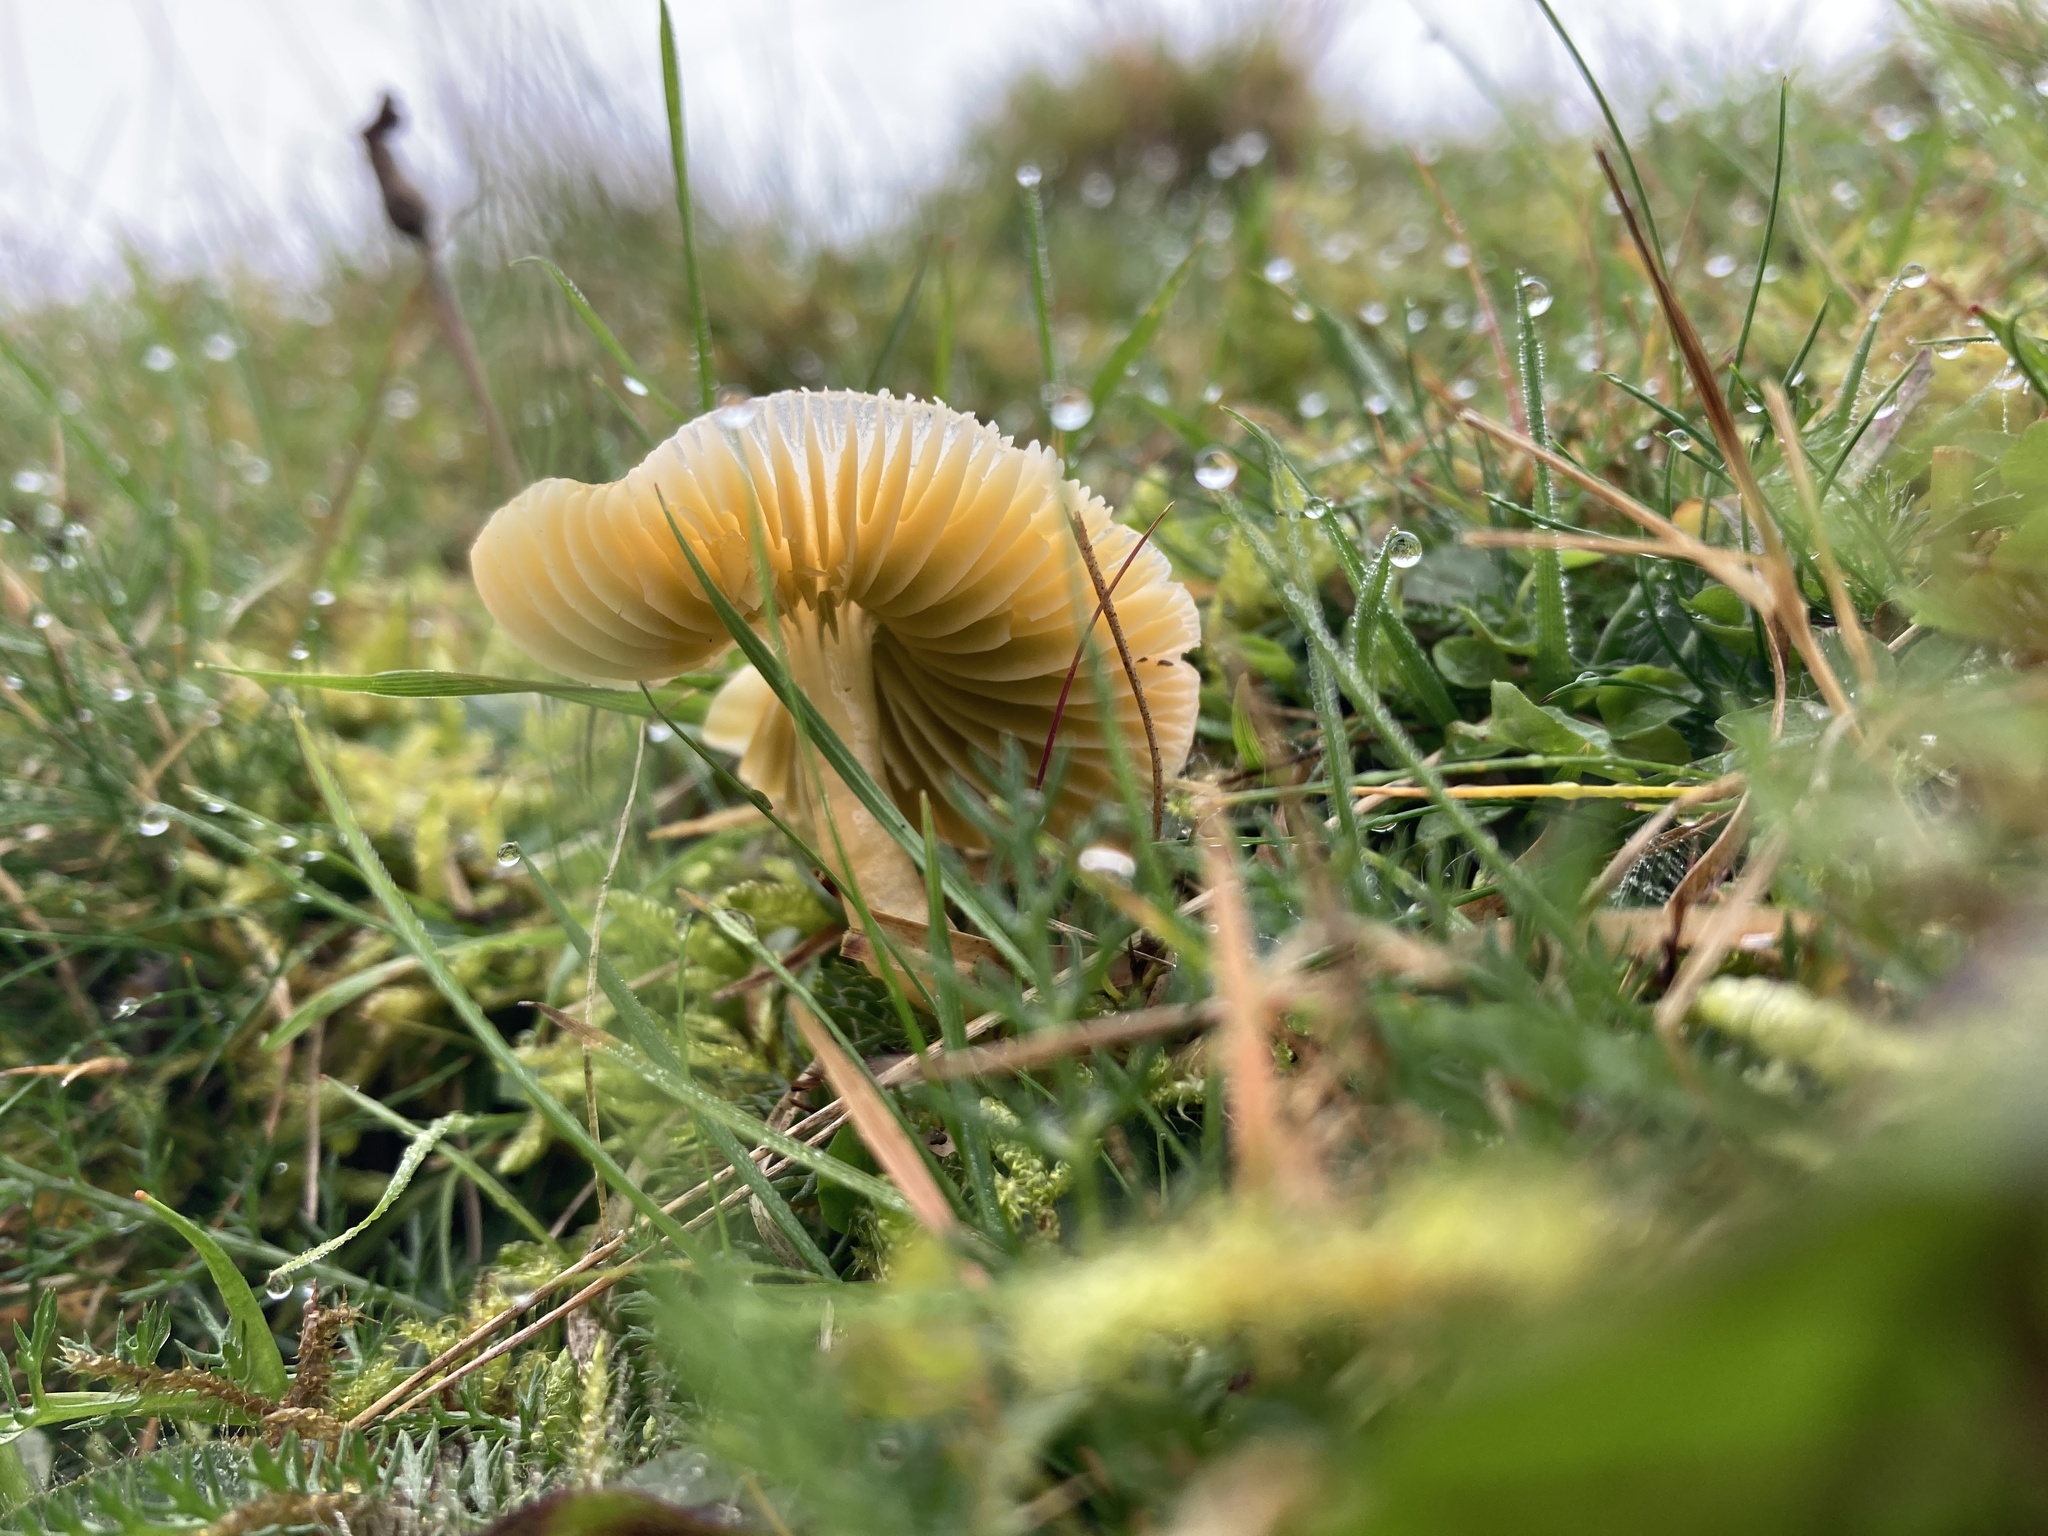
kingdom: Fungi
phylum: Basidiomycota
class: Agaricomycetes
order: Agaricales
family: Hygrophoraceae
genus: Gliophorus
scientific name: Gliophorus psittacinus
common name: Parrot wax-cap
